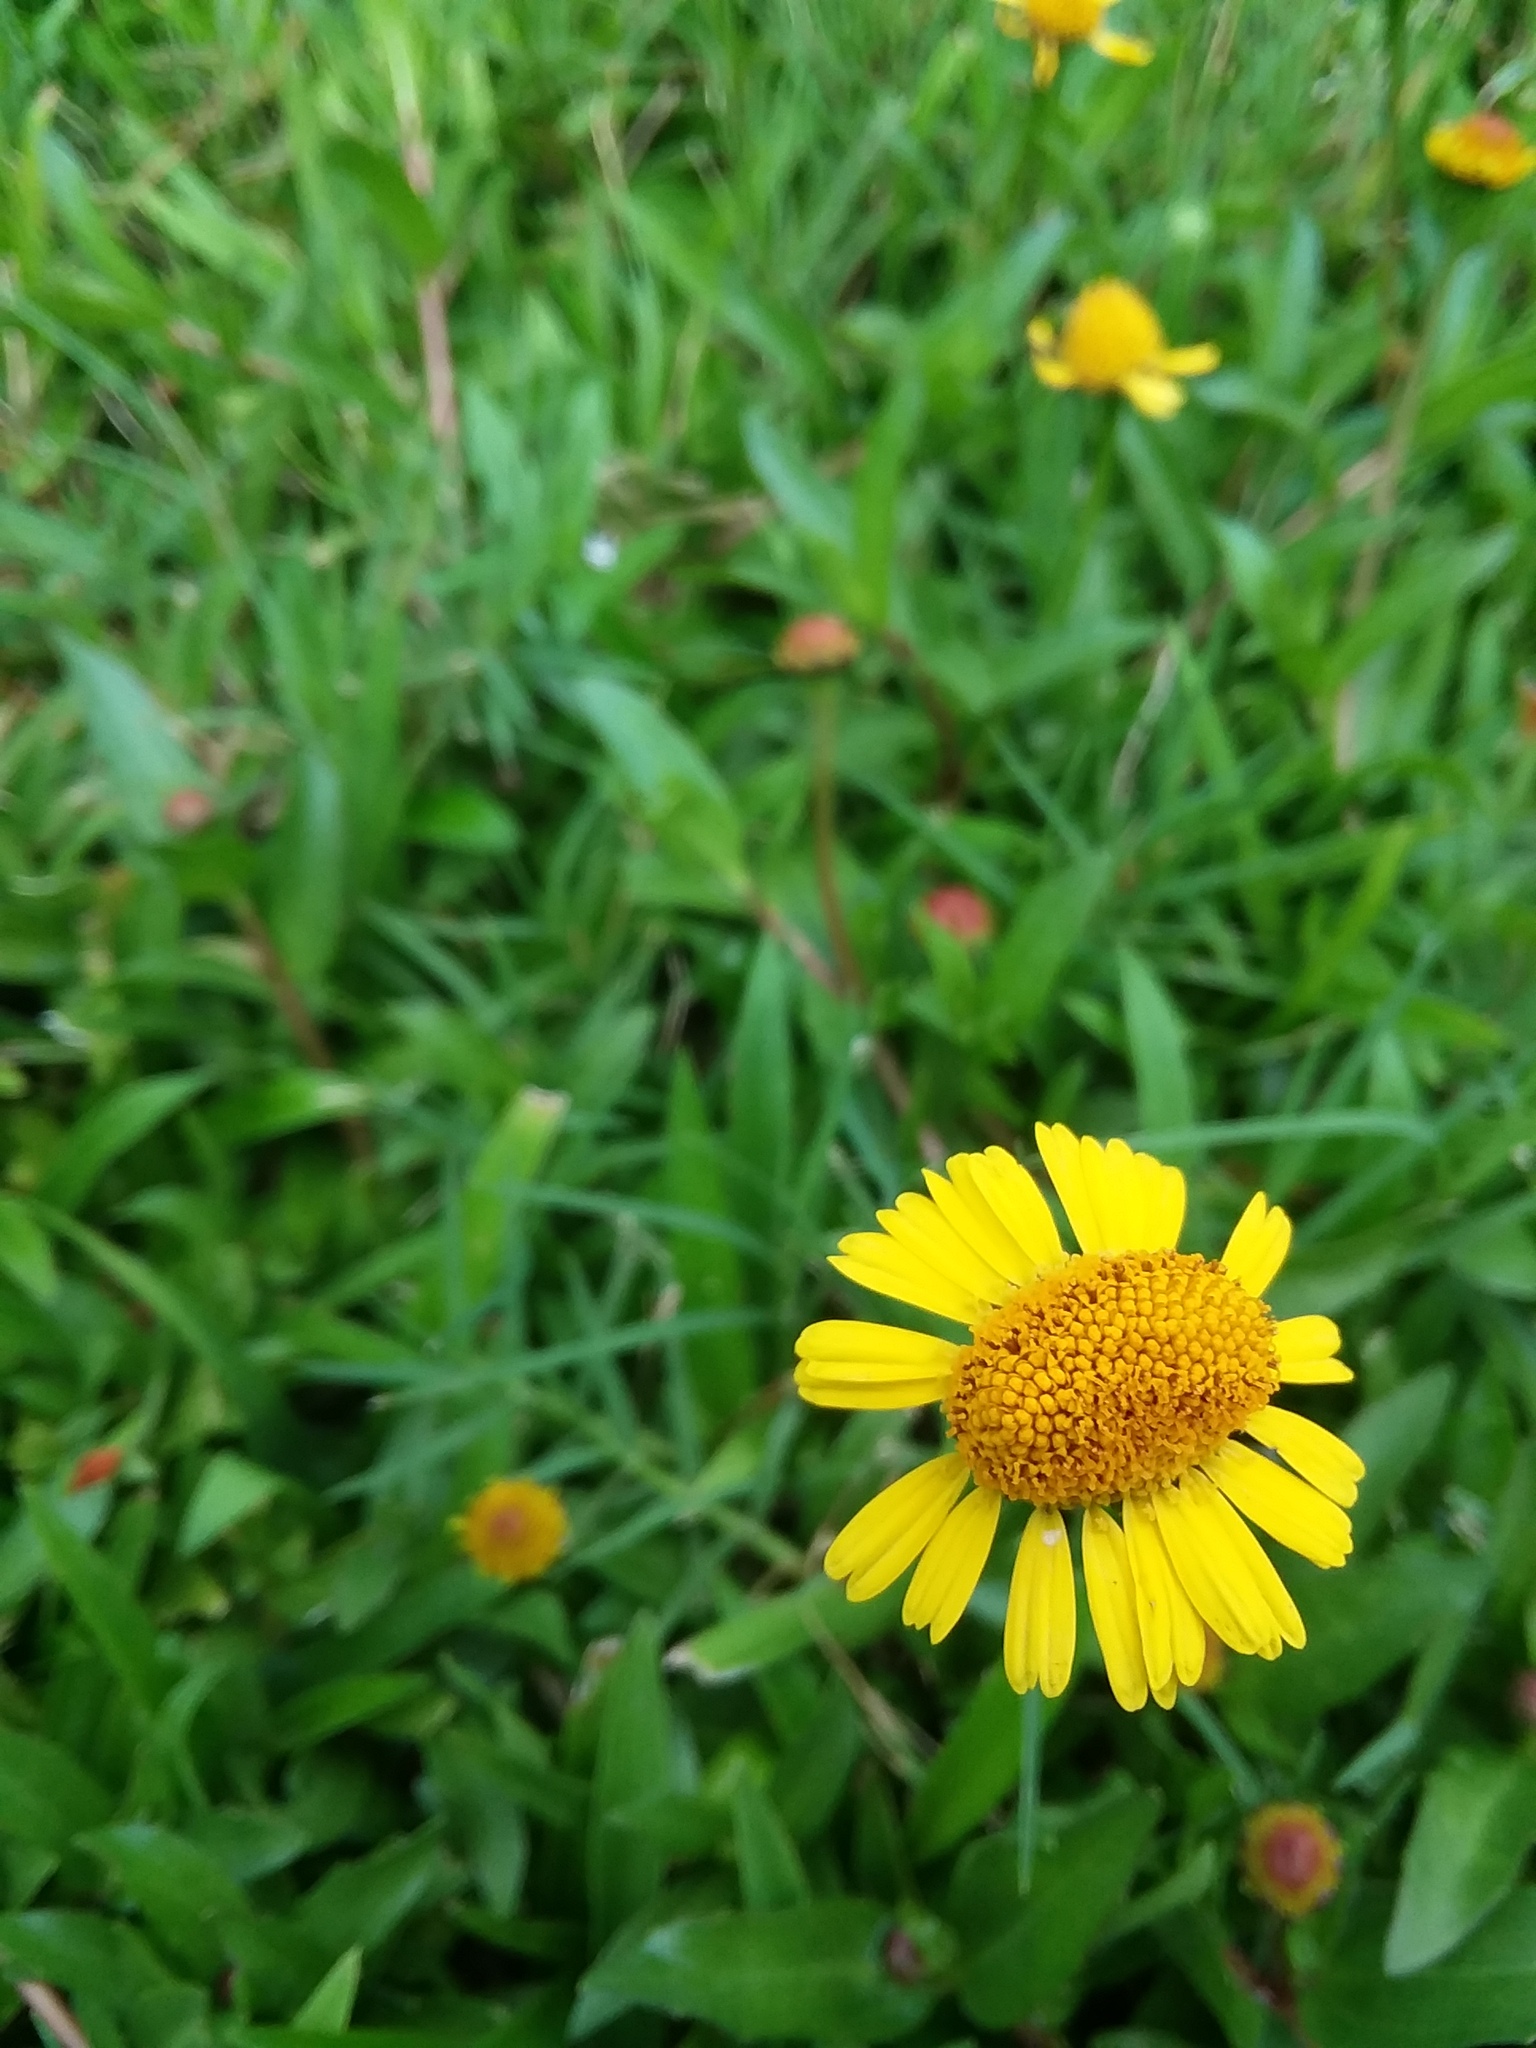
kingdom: Plantae
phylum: Tracheophyta
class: Magnoliopsida
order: Asterales
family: Asteraceae
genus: Helenium
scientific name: Helenium autumnale
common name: Sneezeweed
